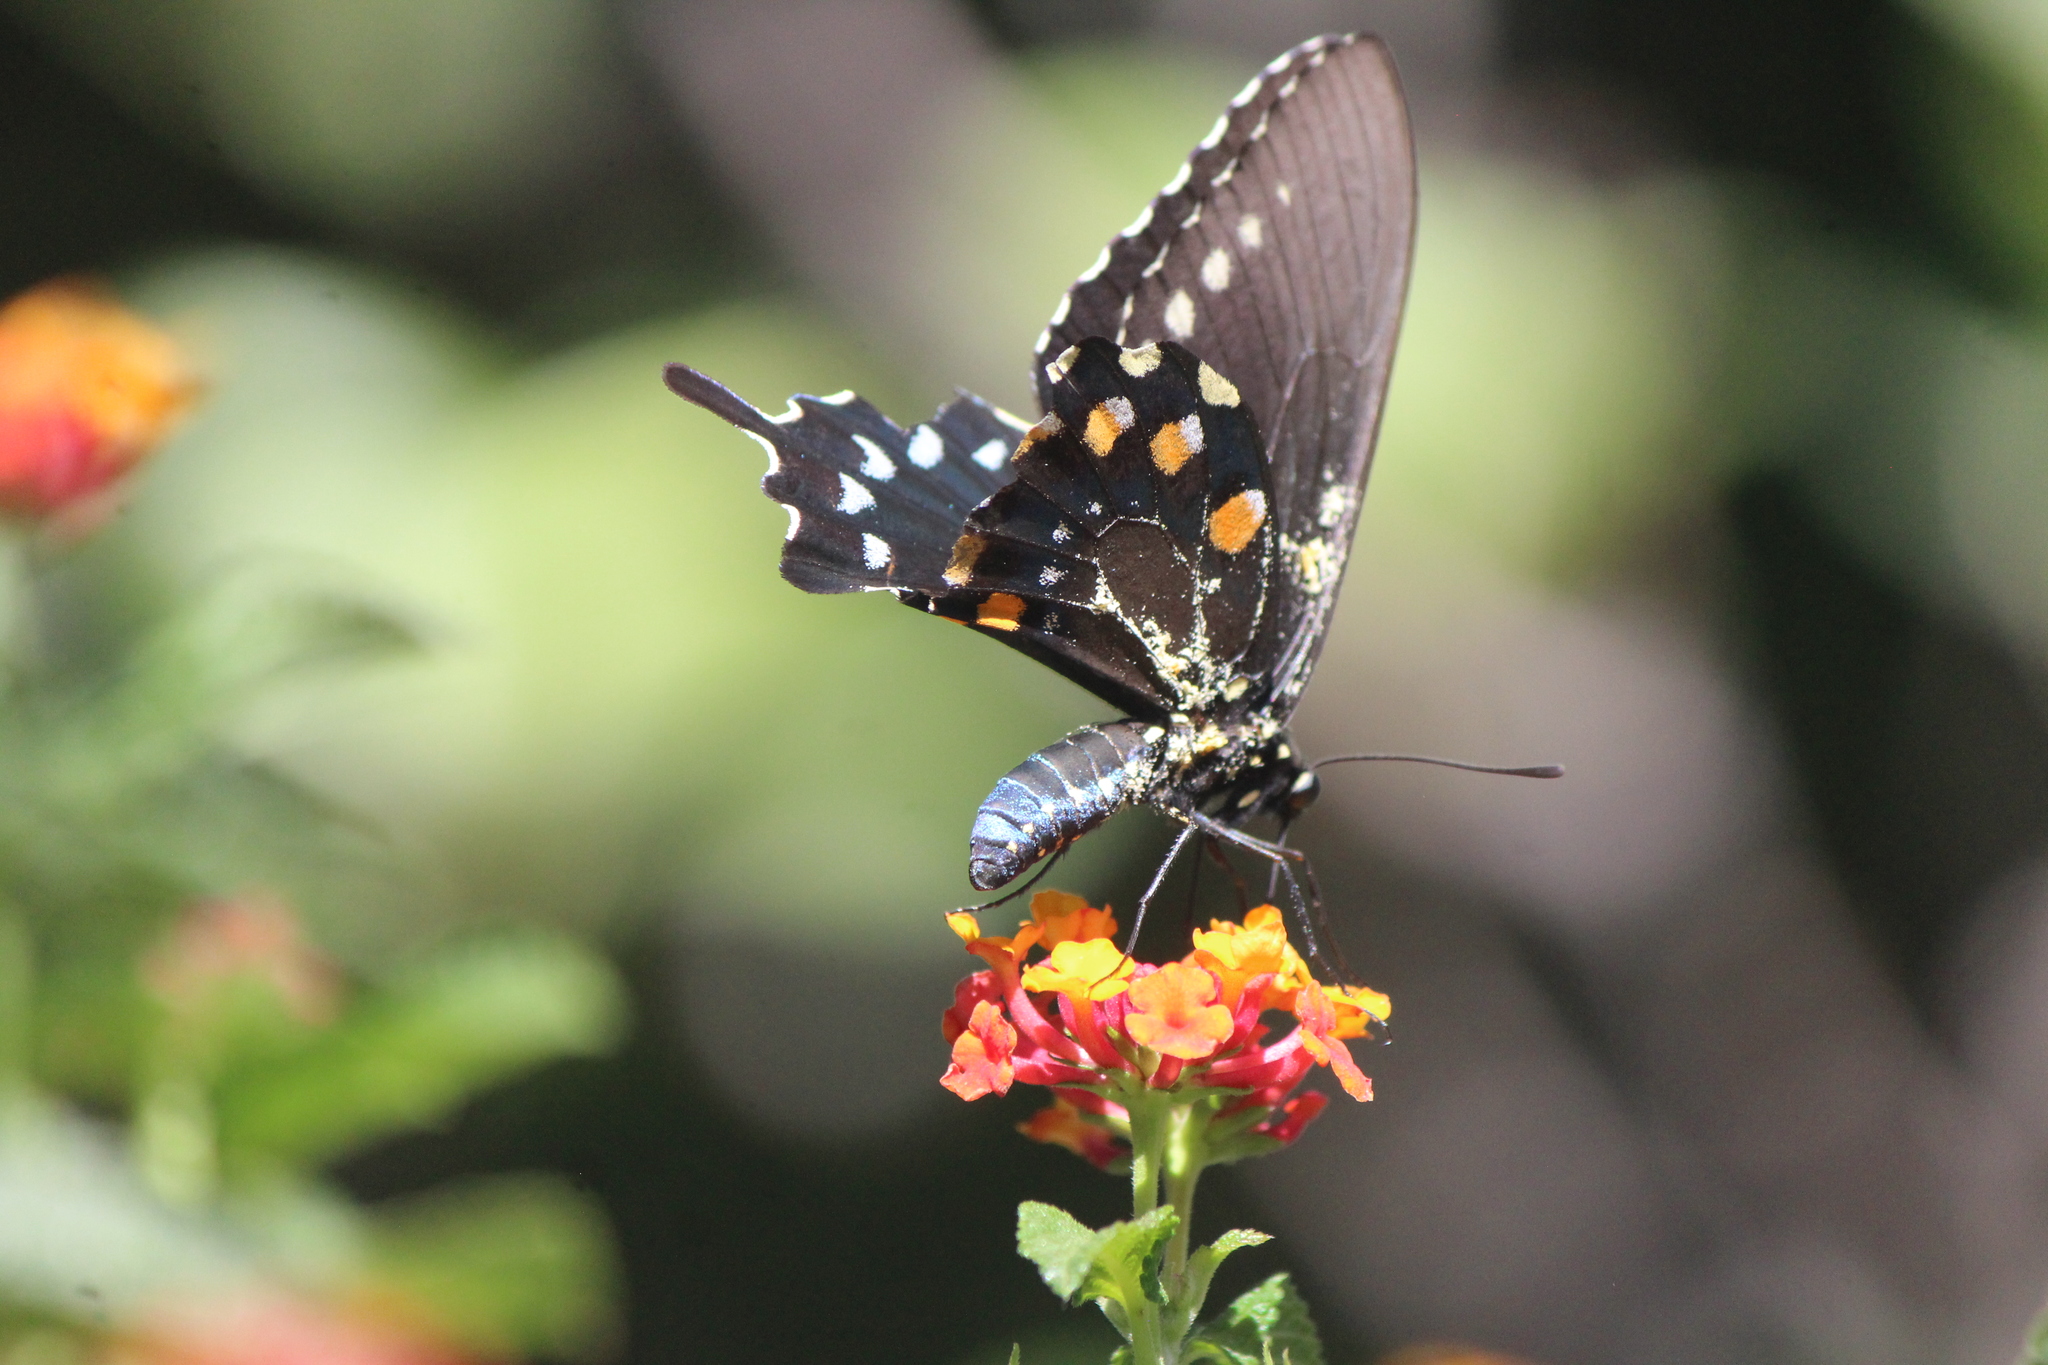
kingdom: Animalia
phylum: Arthropoda
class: Insecta
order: Lepidoptera
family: Papilionidae
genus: Battus
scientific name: Battus philenor
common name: Pipevine swallowtail
